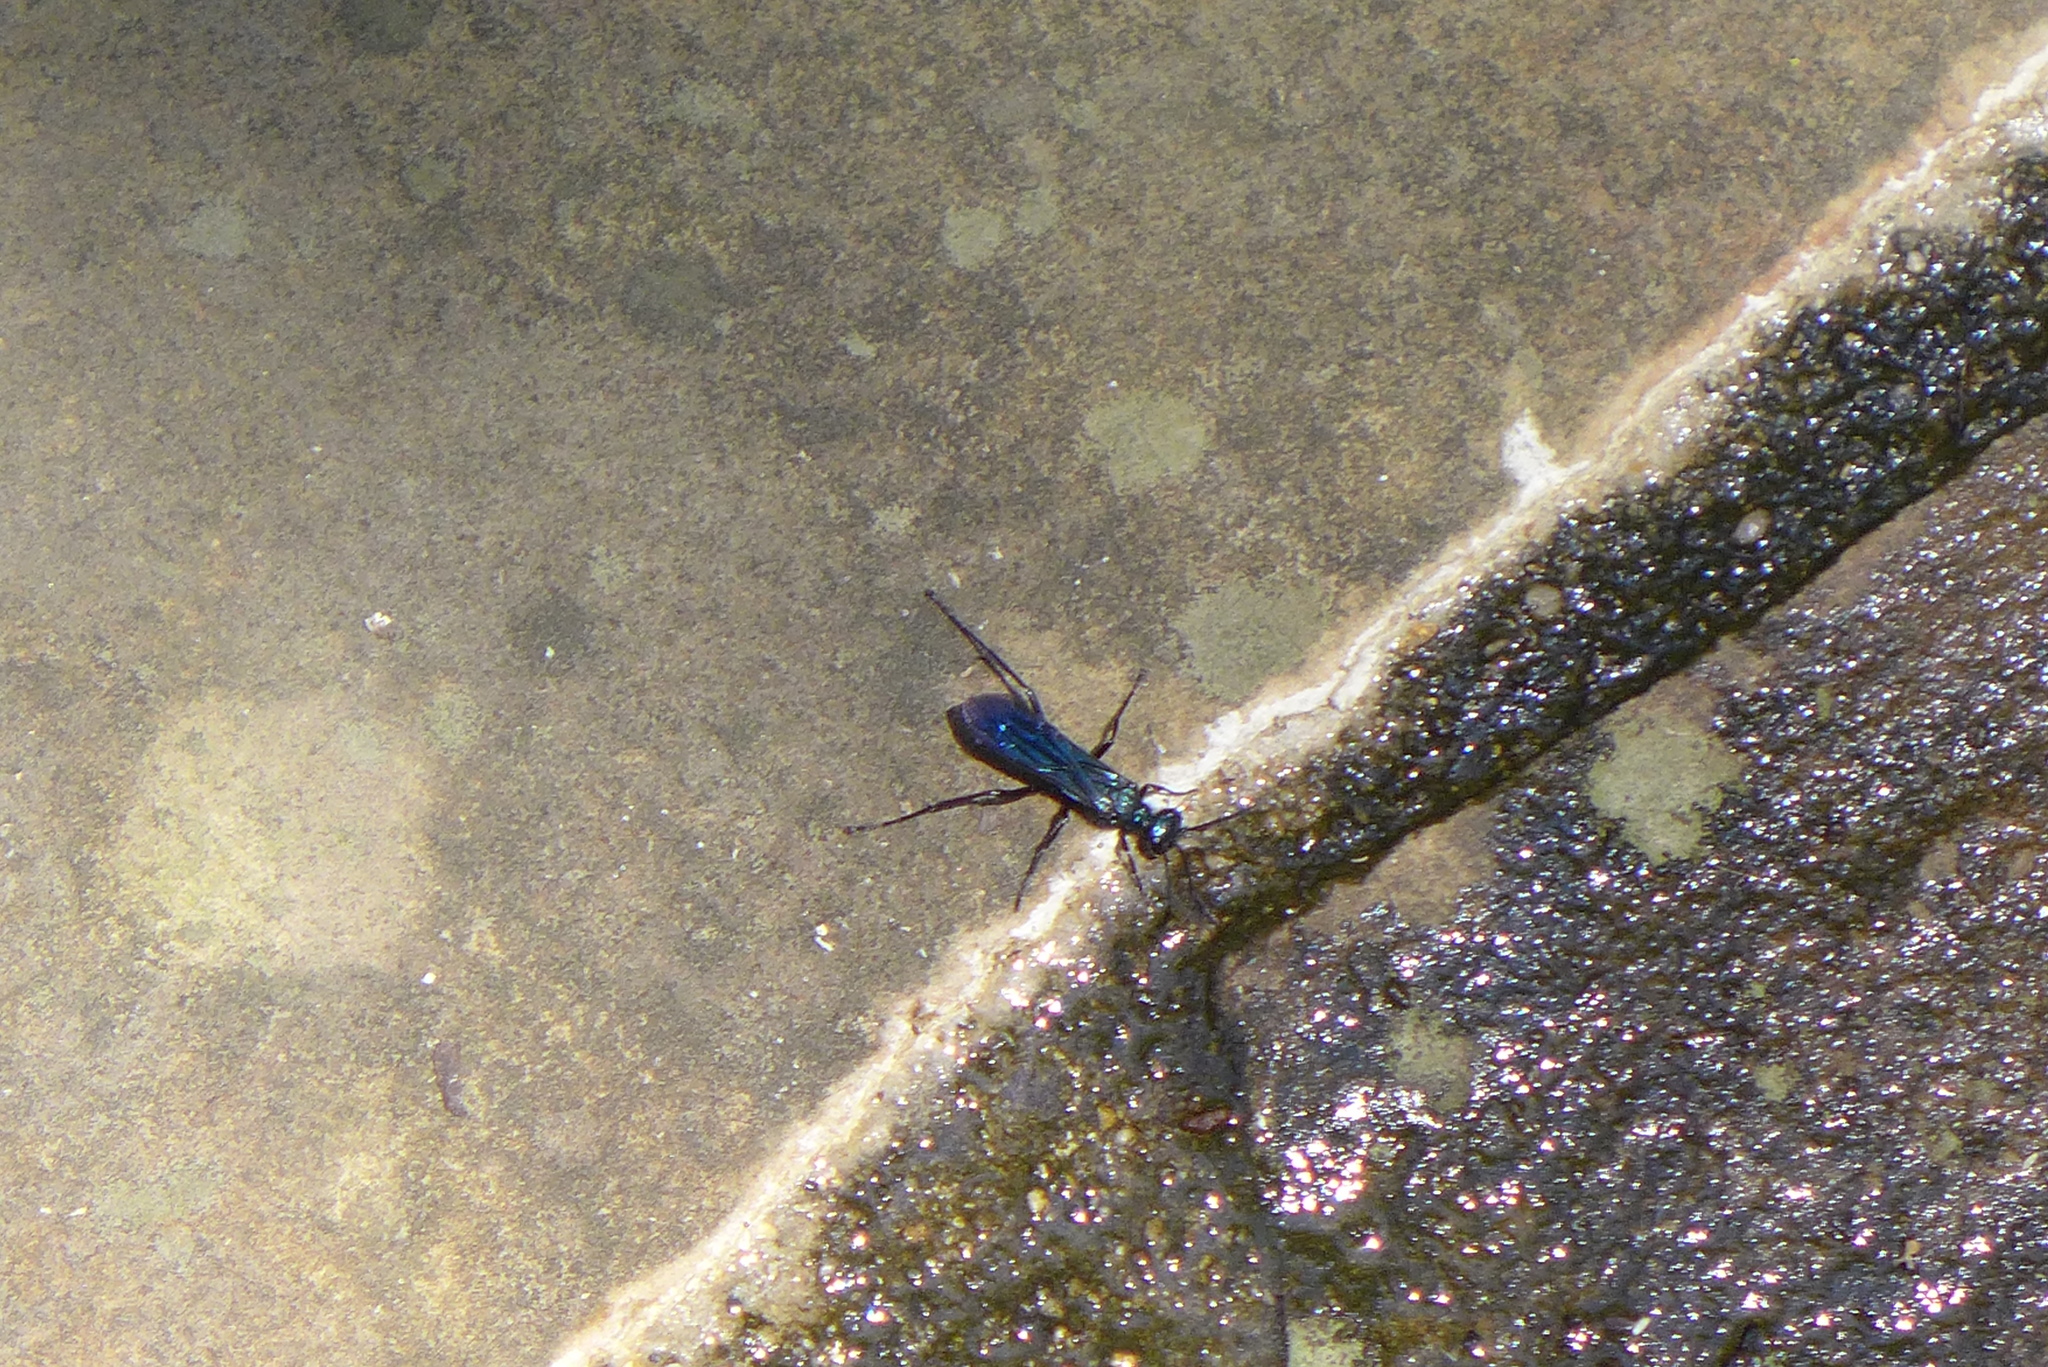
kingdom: Animalia
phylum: Arthropoda
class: Insecta
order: Hymenoptera
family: Sphecidae
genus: Chalybion
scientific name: Chalybion californicum
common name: Mud dauber
